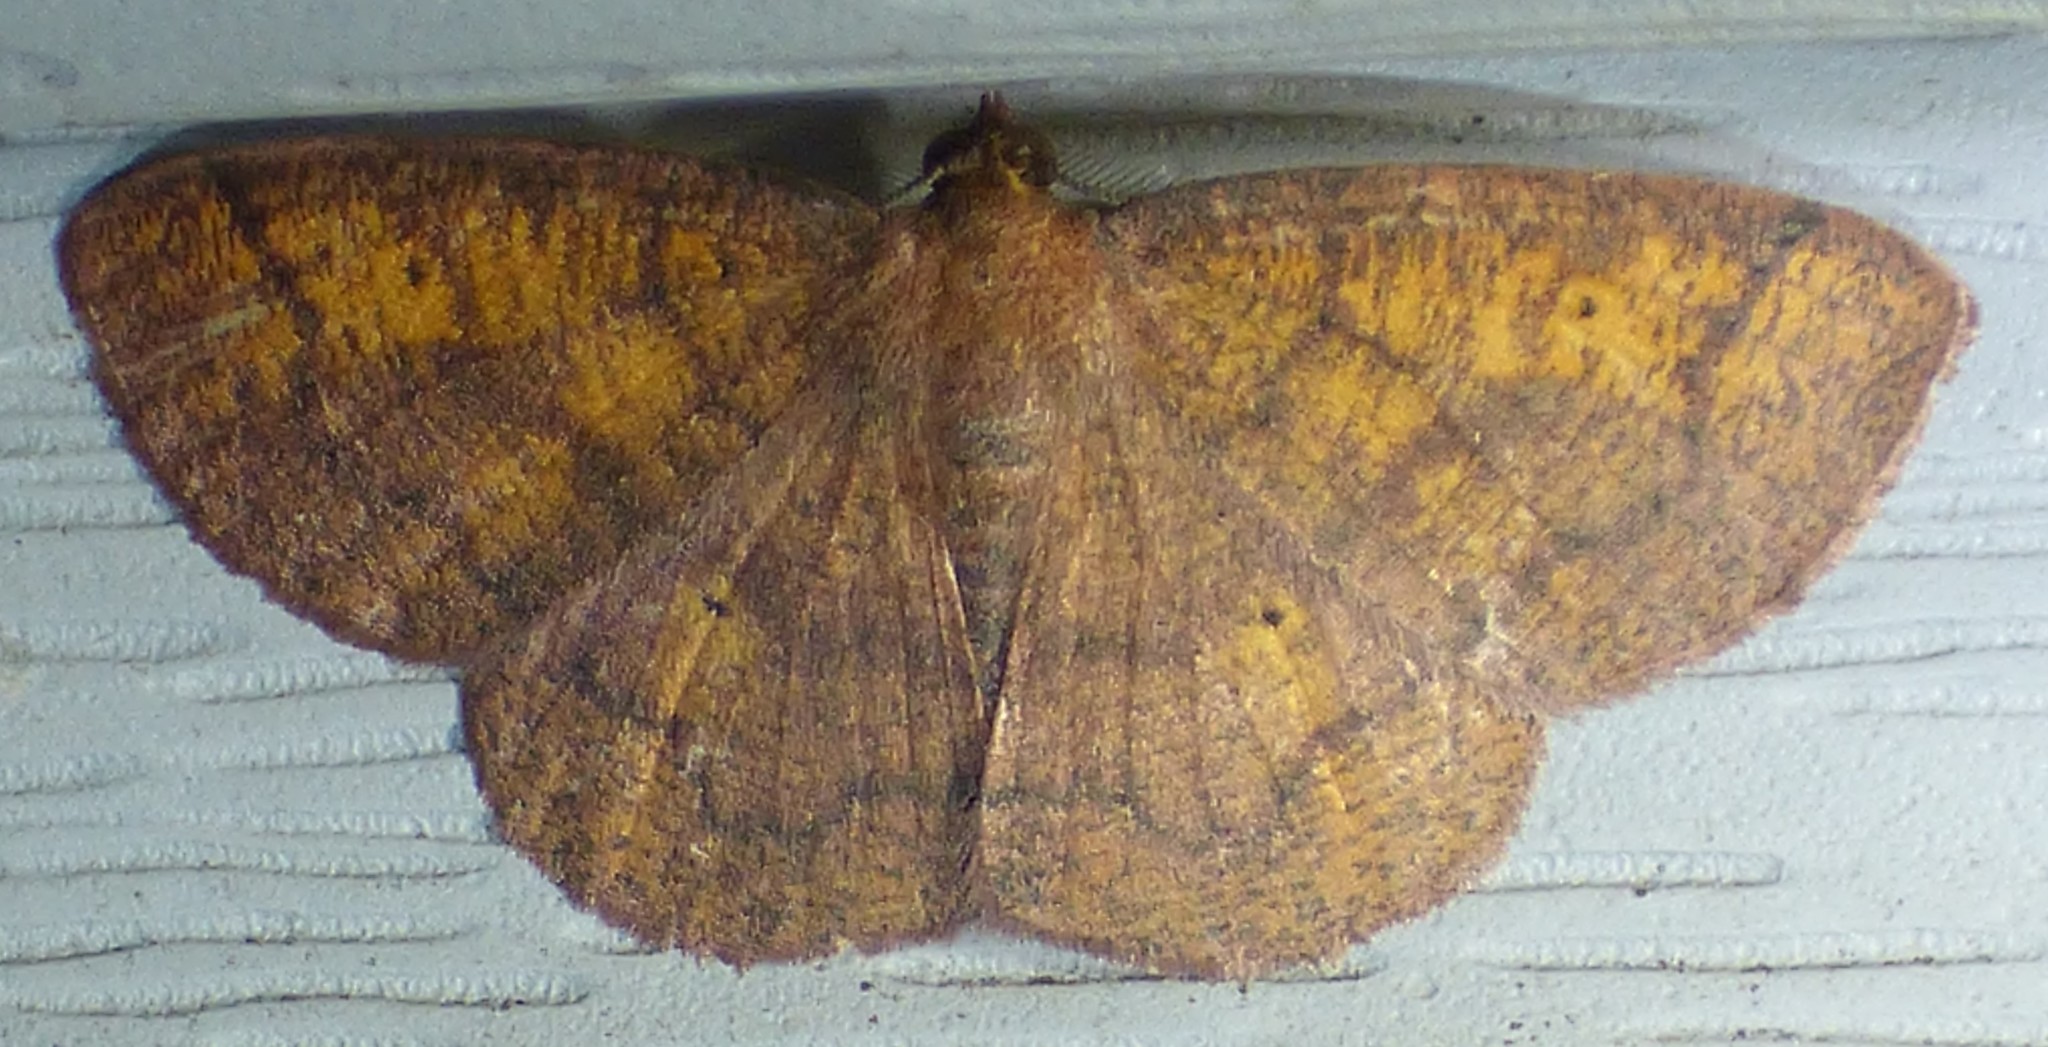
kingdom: Animalia
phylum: Arthropoda
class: Insecta
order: Lepidoptera
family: Geometridae
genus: Ilexia
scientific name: Ilexia intractata
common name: Black-dotted ruddy moth
